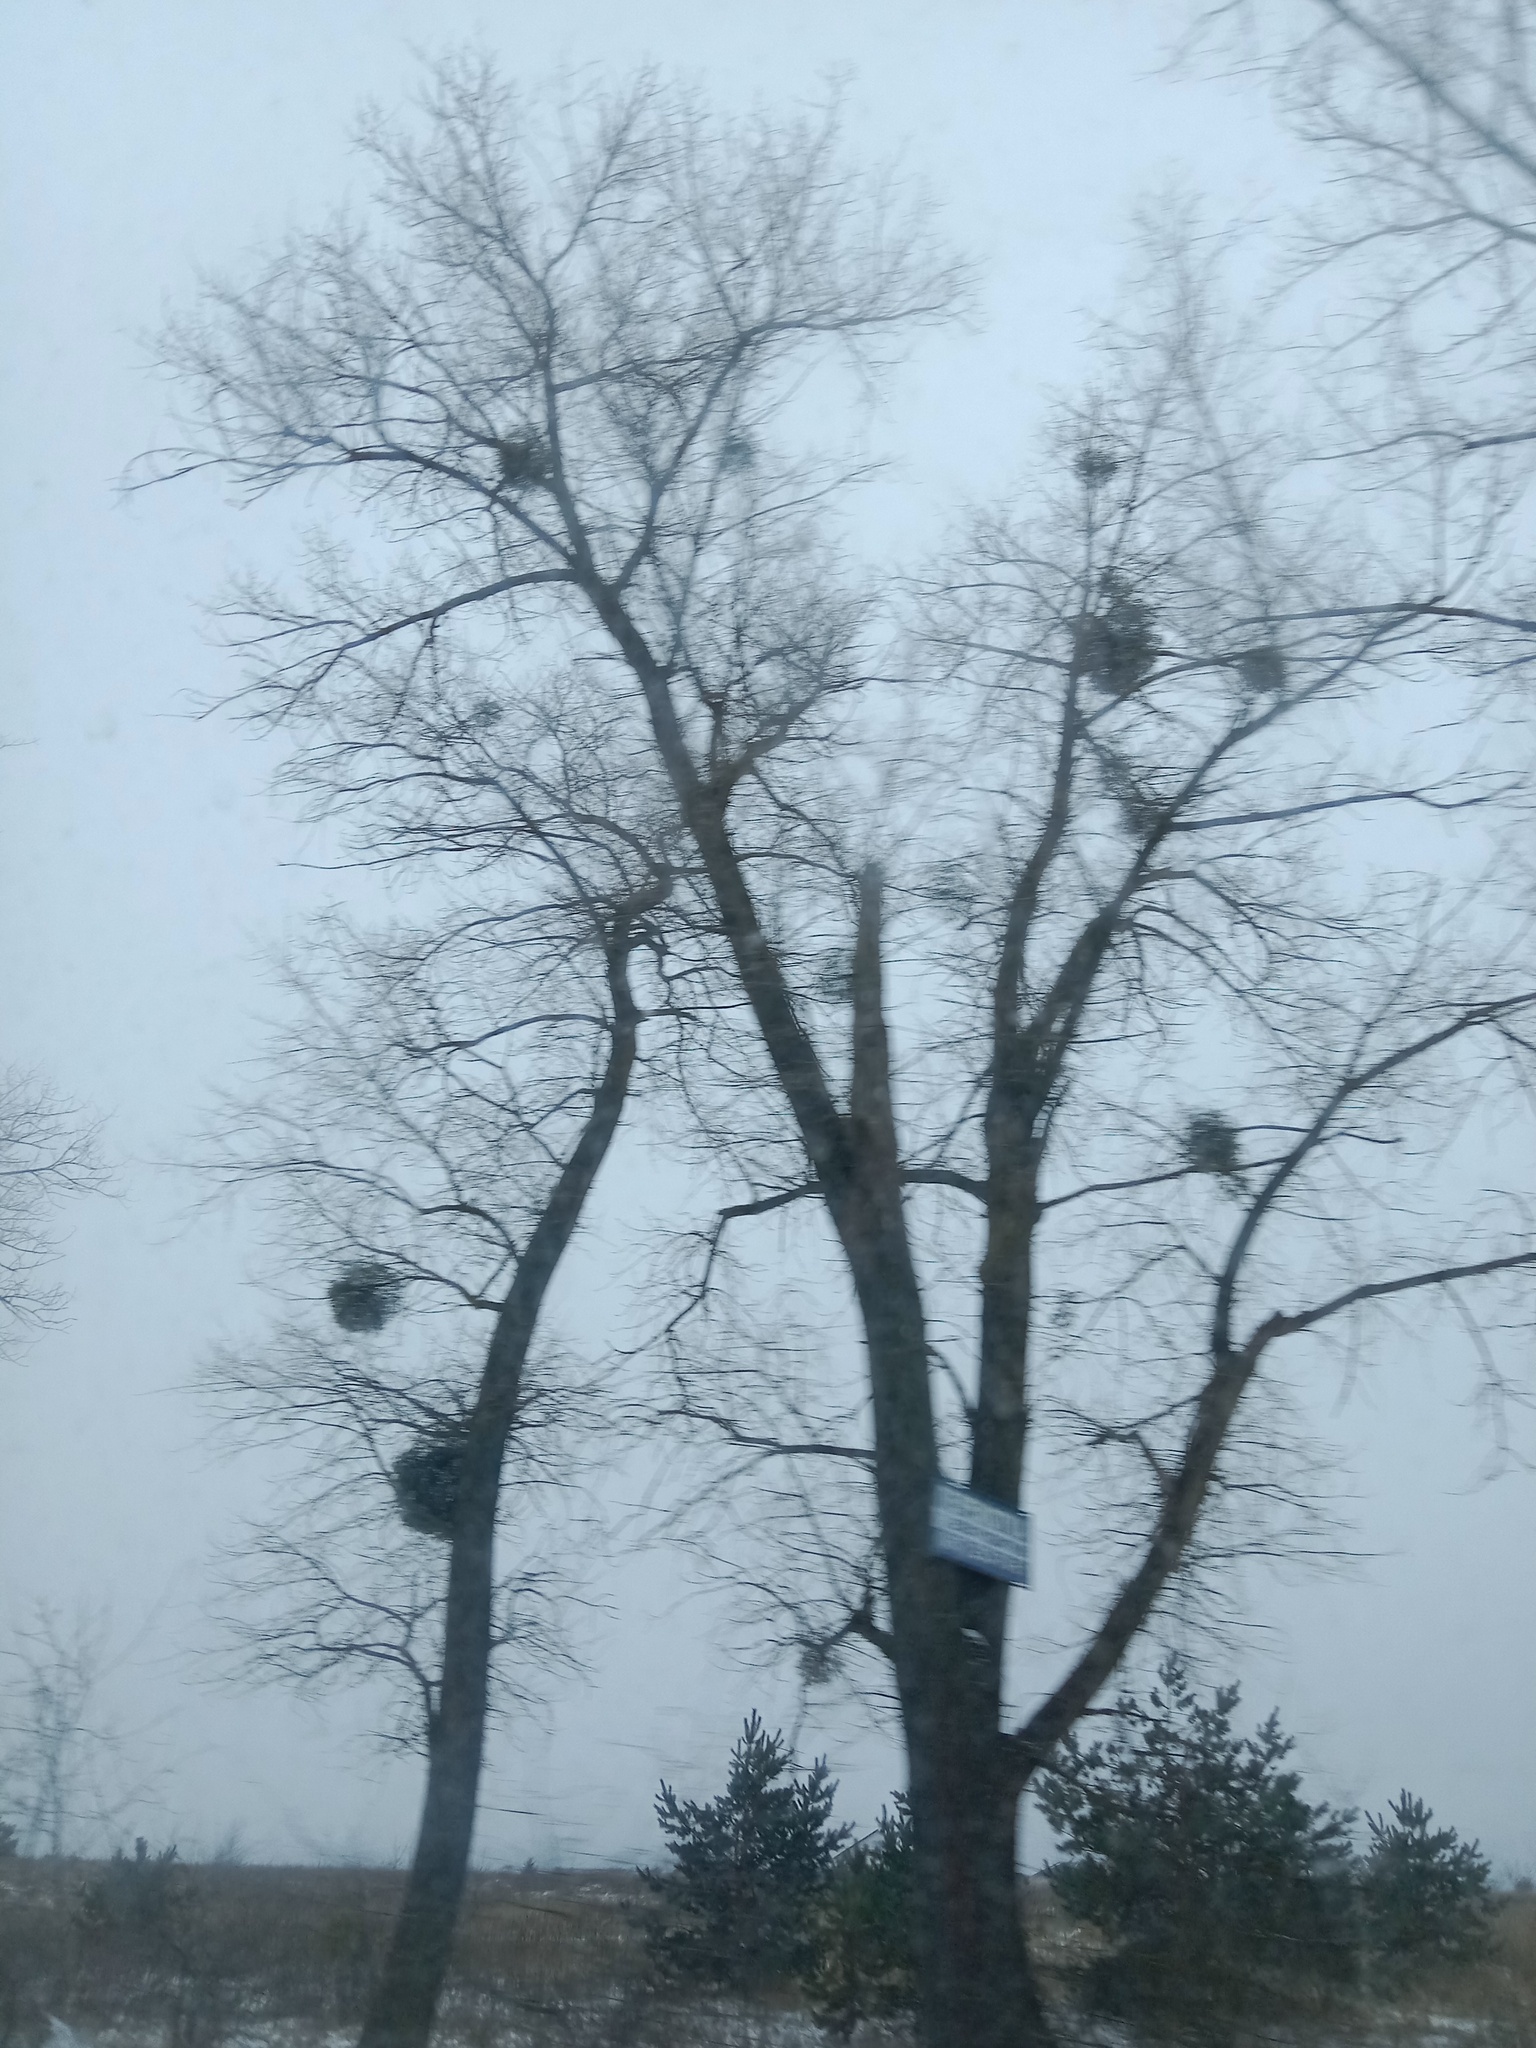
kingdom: Plantae
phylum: Tracheophyta
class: Magnoliopsida
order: Santalales
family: Viscaceae
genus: Viscum
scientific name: Viscum album
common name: Mistletoe
